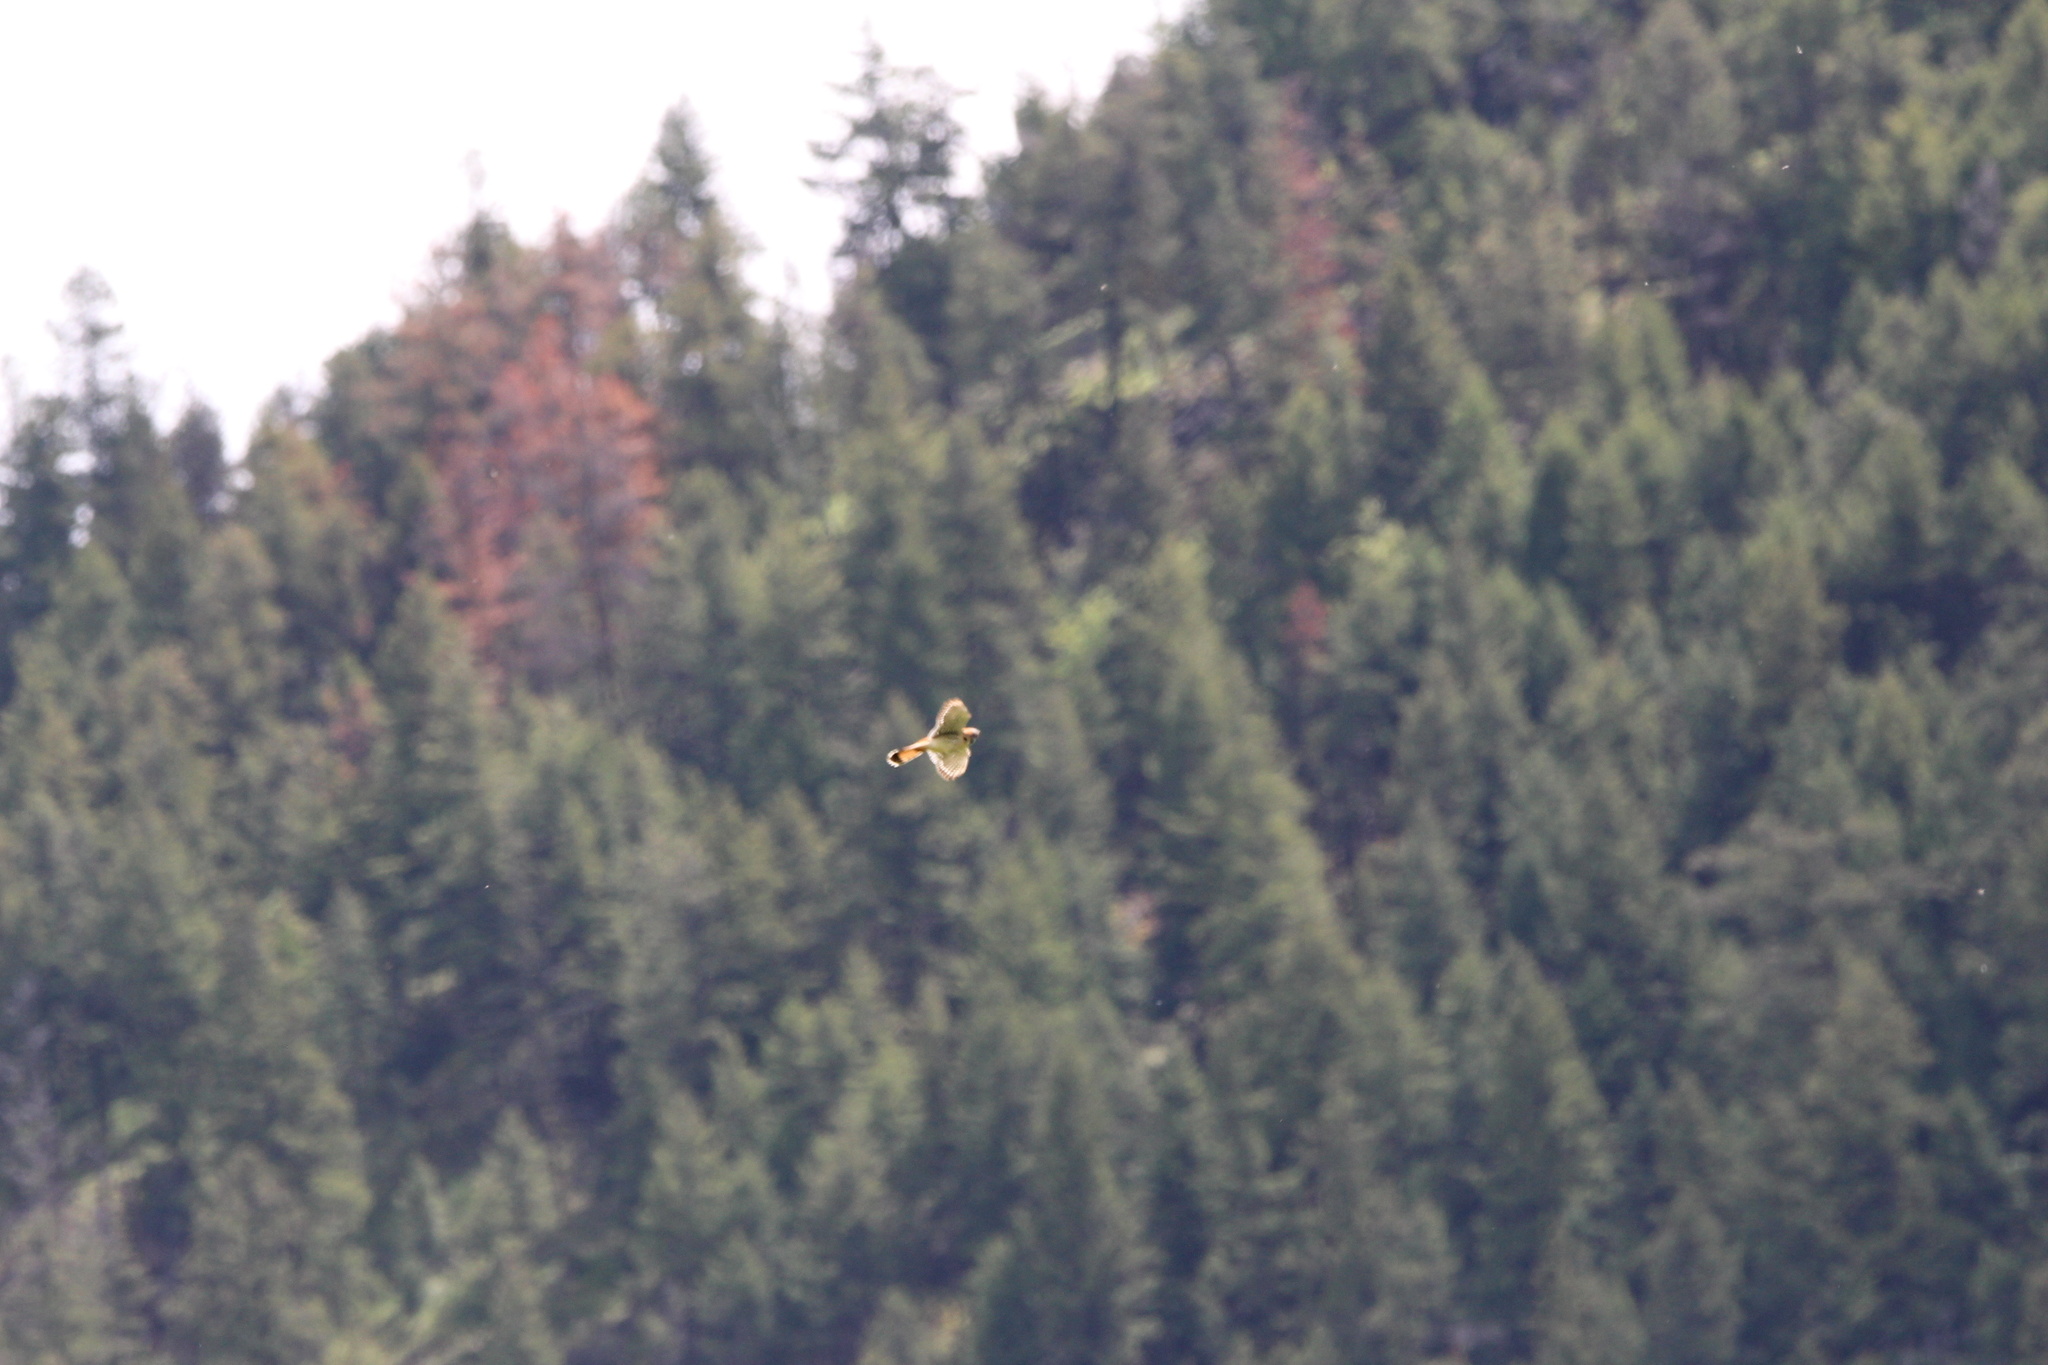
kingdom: Animalia
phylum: Chordata
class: Aves
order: Falconiformes
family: Falconidae
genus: Falco
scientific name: Falco sparverius
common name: American kestrel
